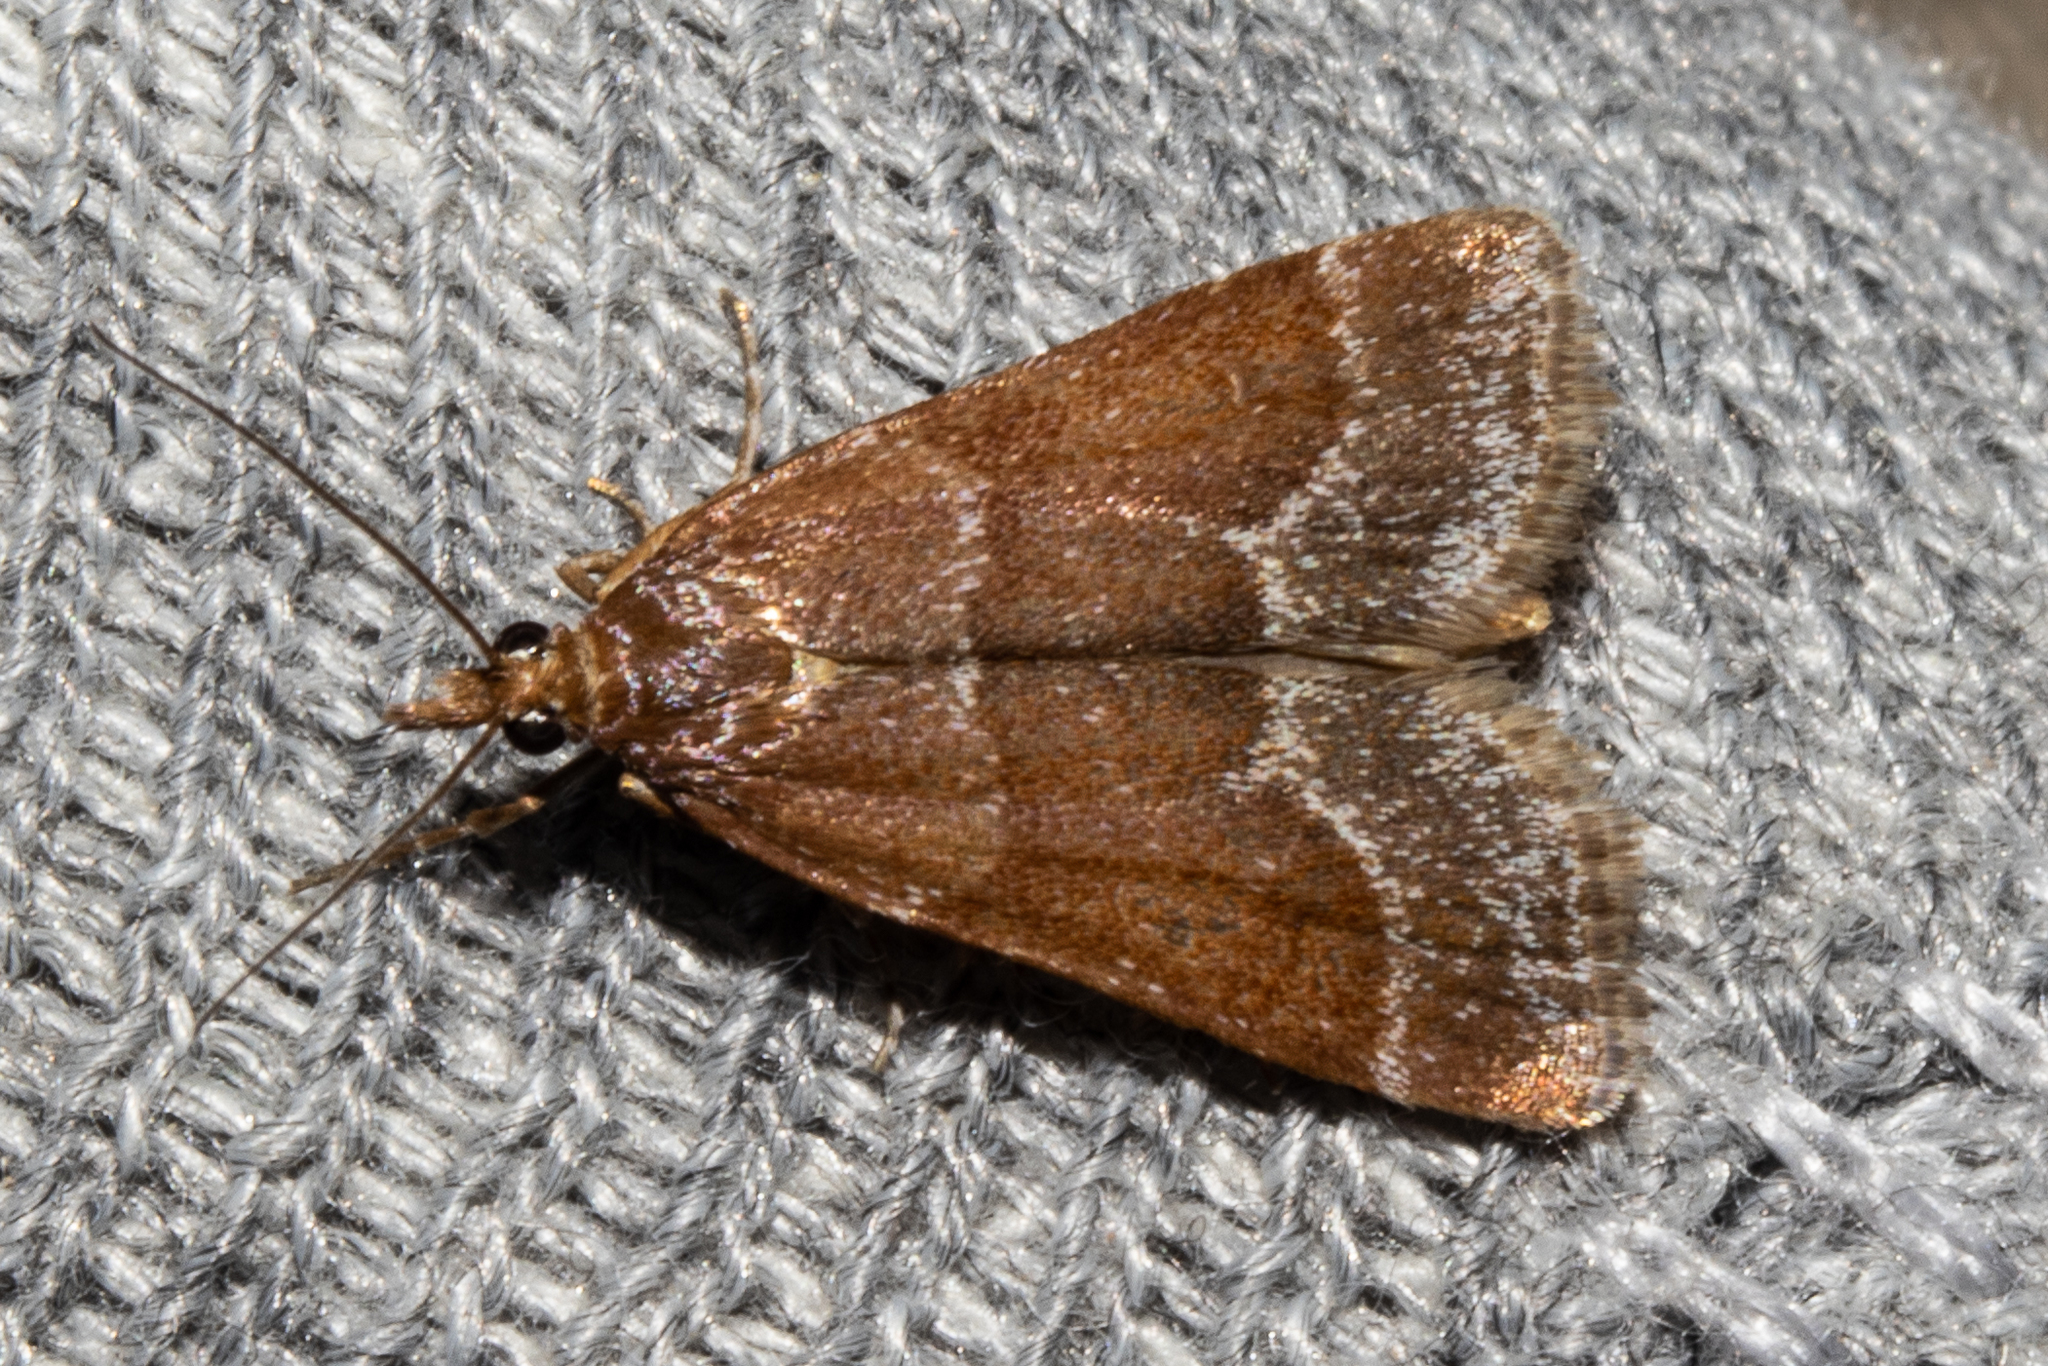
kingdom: Animalia
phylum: Arthropoda
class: Insecta
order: Lepidoptera
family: Crambidae
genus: Eudonia
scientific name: Eudonia feredayi
